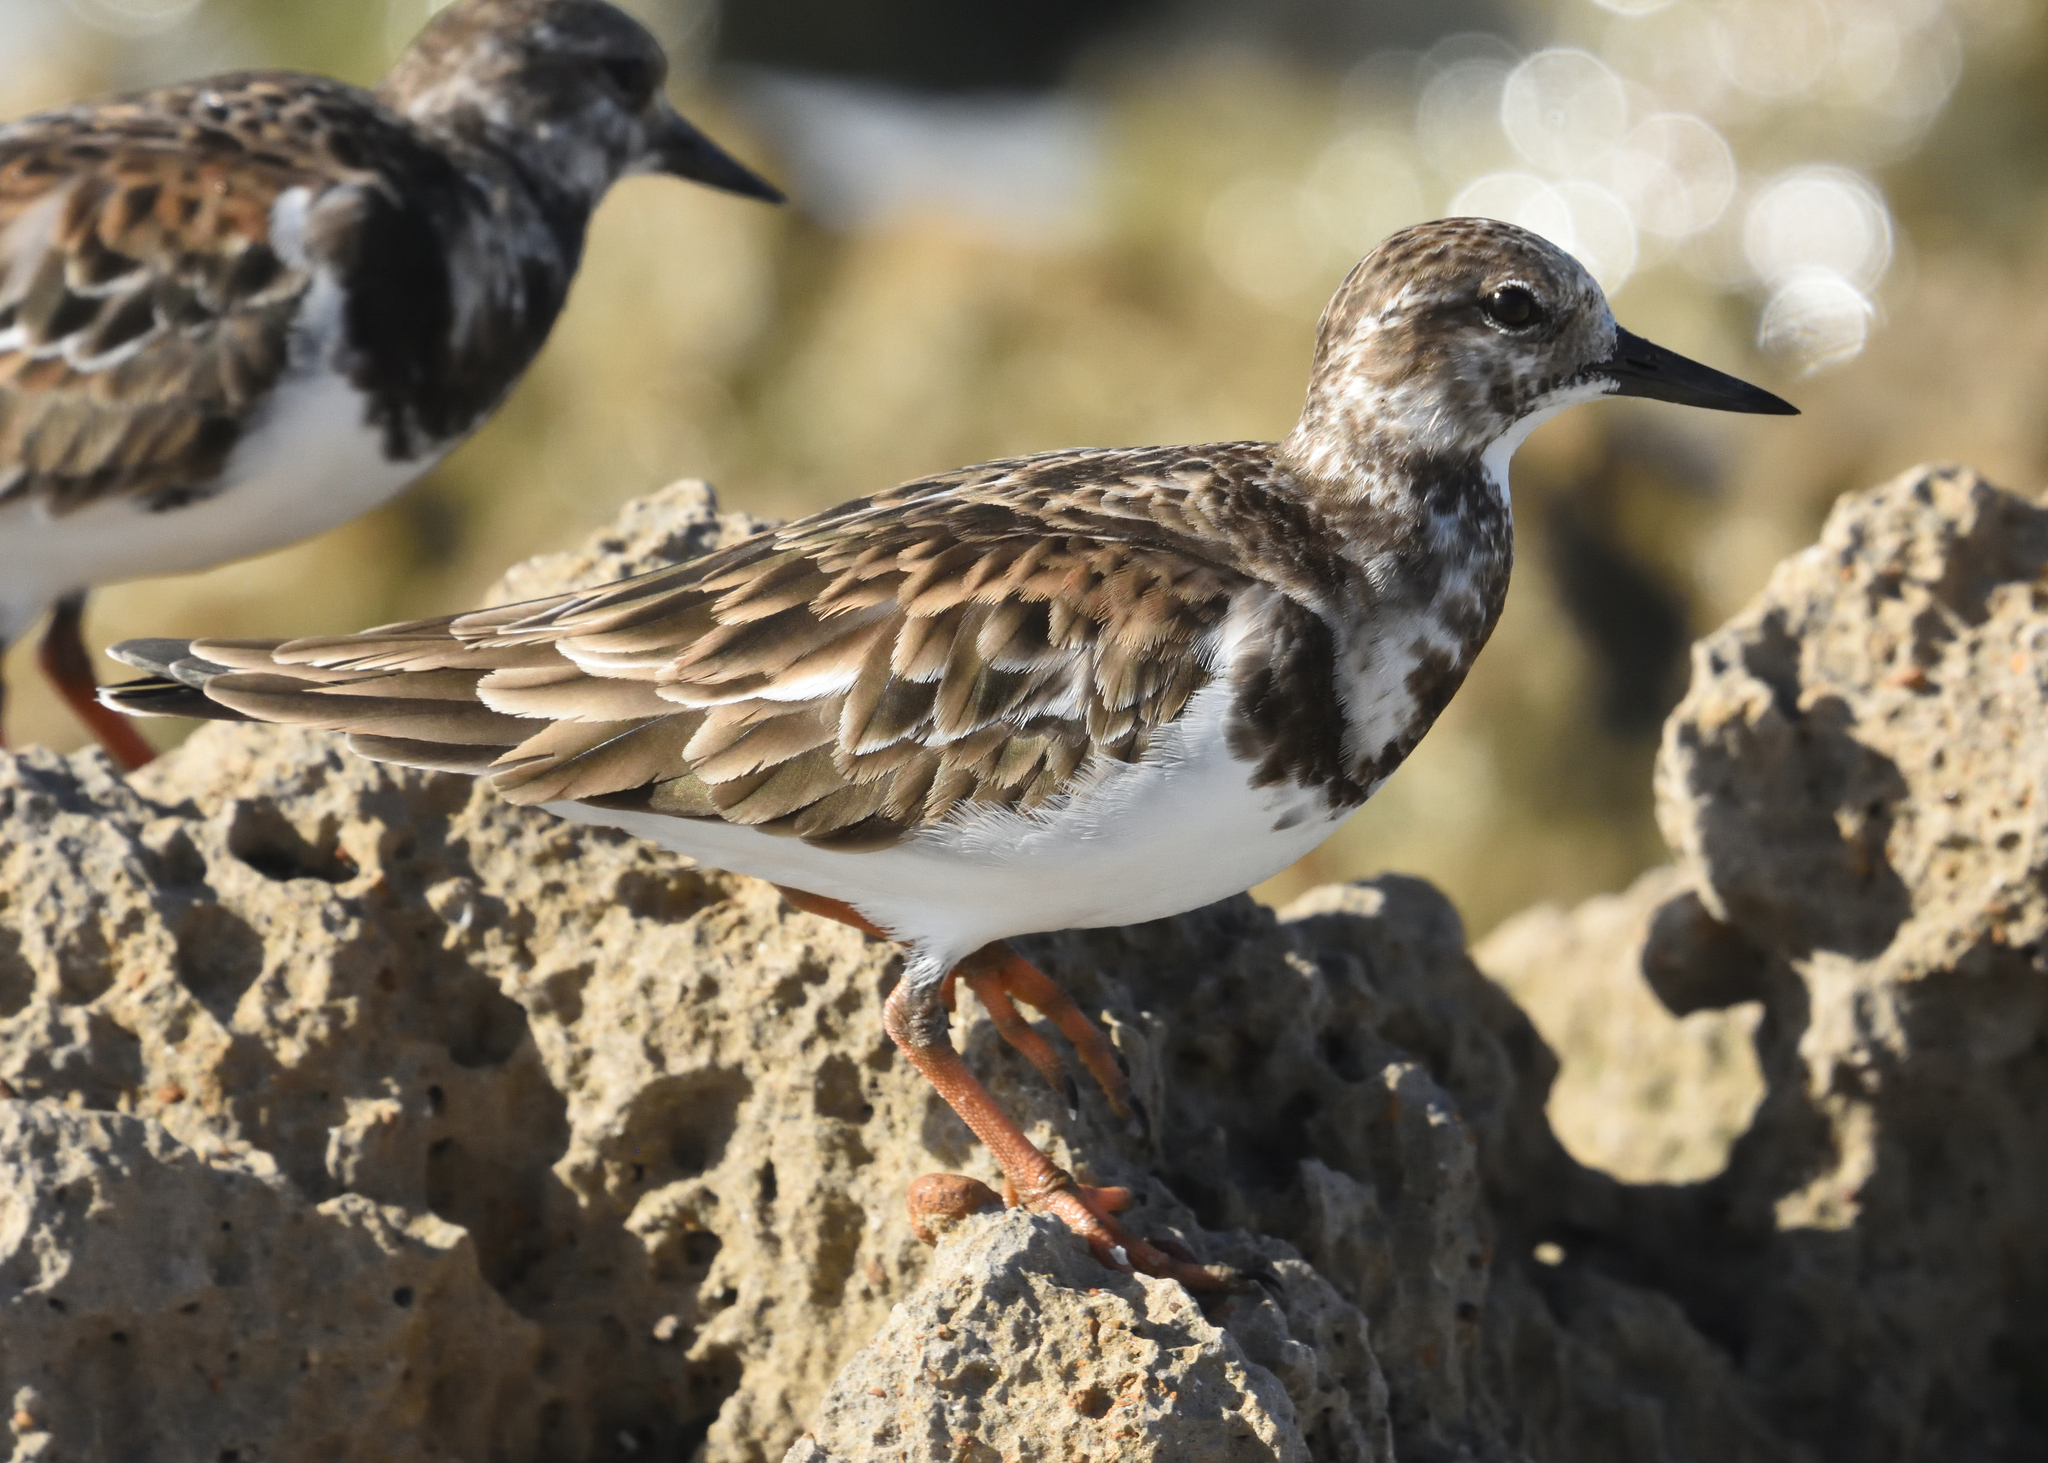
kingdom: Animalia
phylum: Chordata
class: Aves
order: Charadriiformes
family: Scolopacidae
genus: Arenaria
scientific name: Arenaria interpres
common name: Ruddy turnstone
